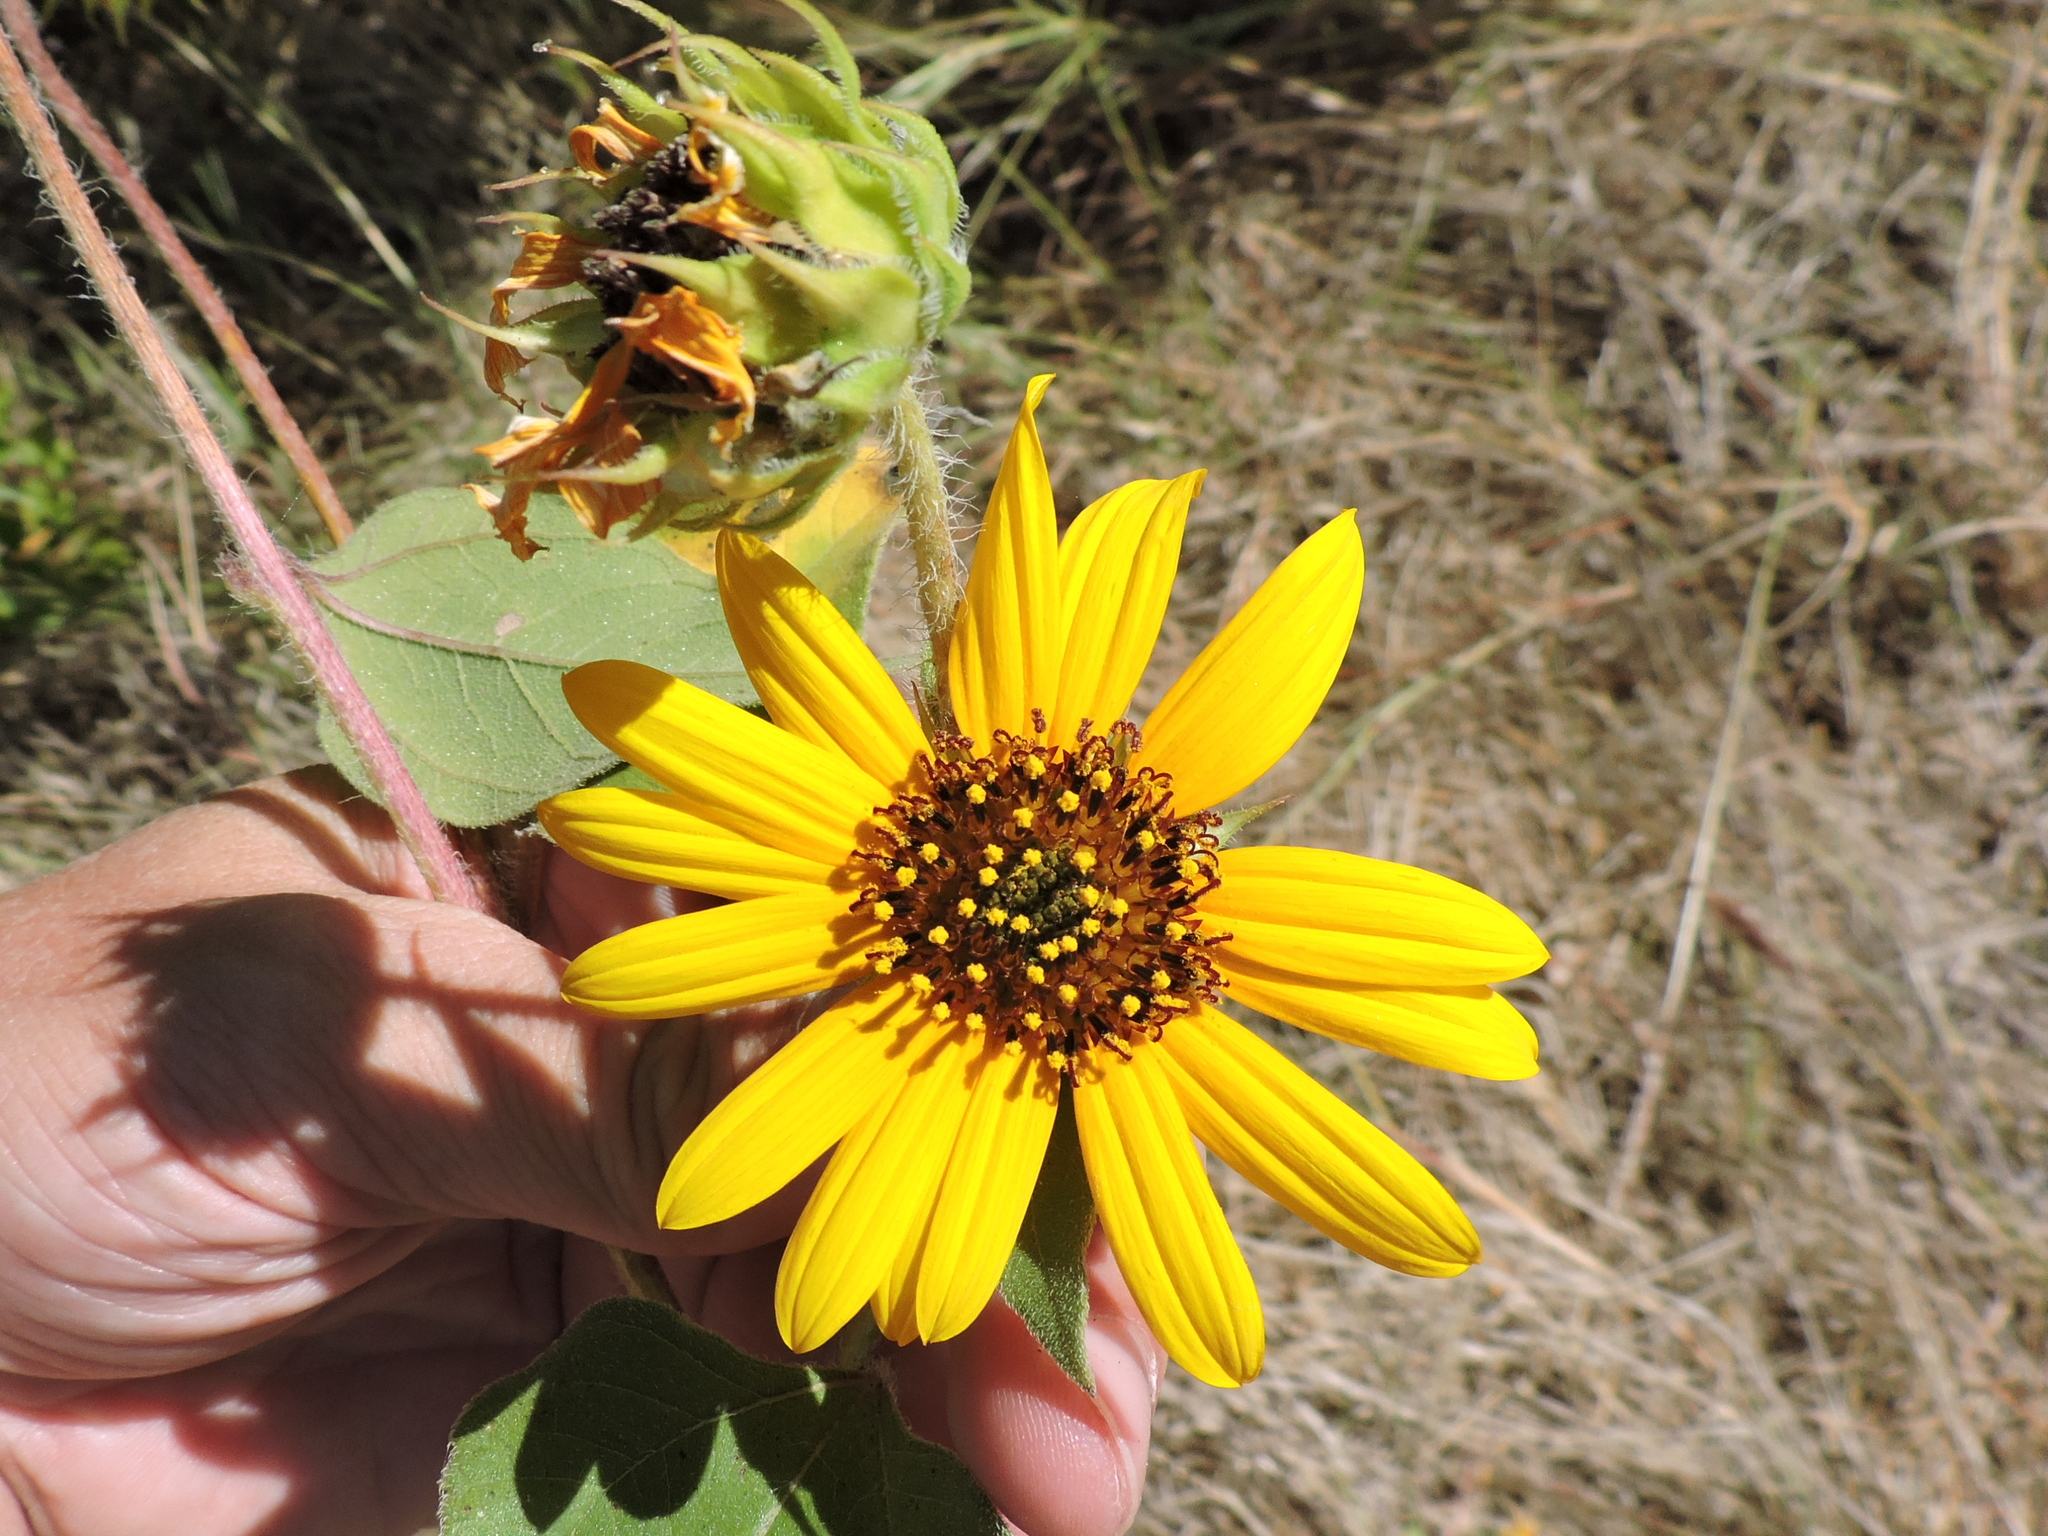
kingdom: Plantae
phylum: Tracheophyta
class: Magnoliopsida
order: Asterales
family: Asteraceae
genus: Helianthus
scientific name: Helianthus annuus
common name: Sunflower
